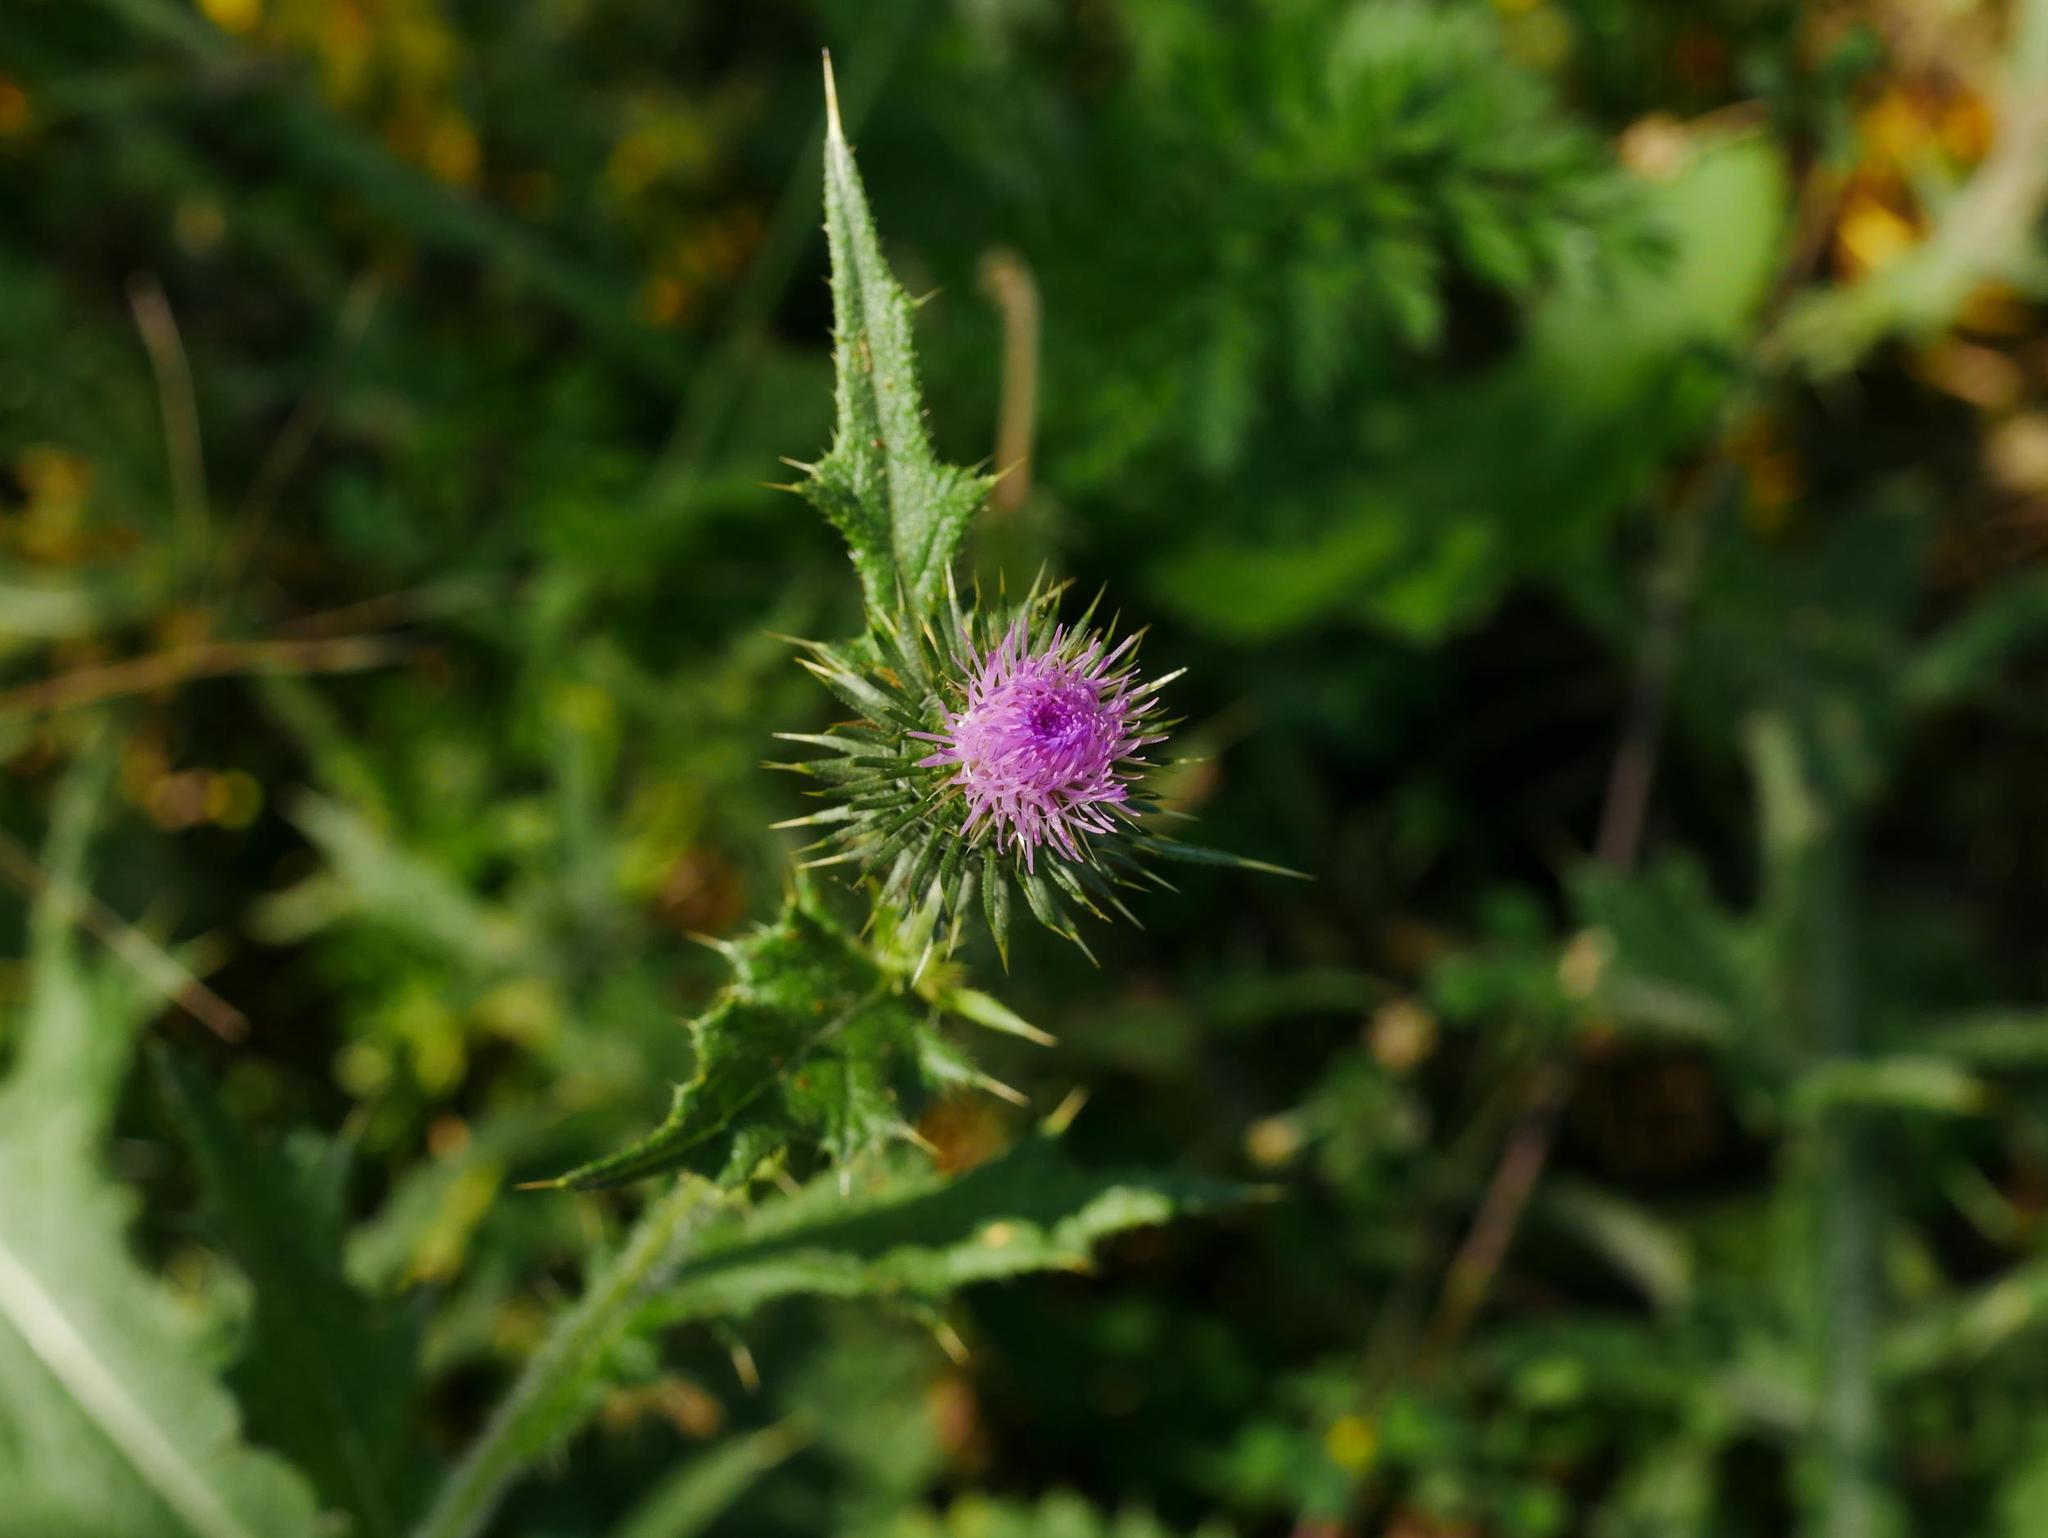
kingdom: Plantae
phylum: Tracheophyta
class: Magnoliopsida
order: Asterales
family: Asteraceae
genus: Cirsium
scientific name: Cirsium vulgare
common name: Bull thistle
